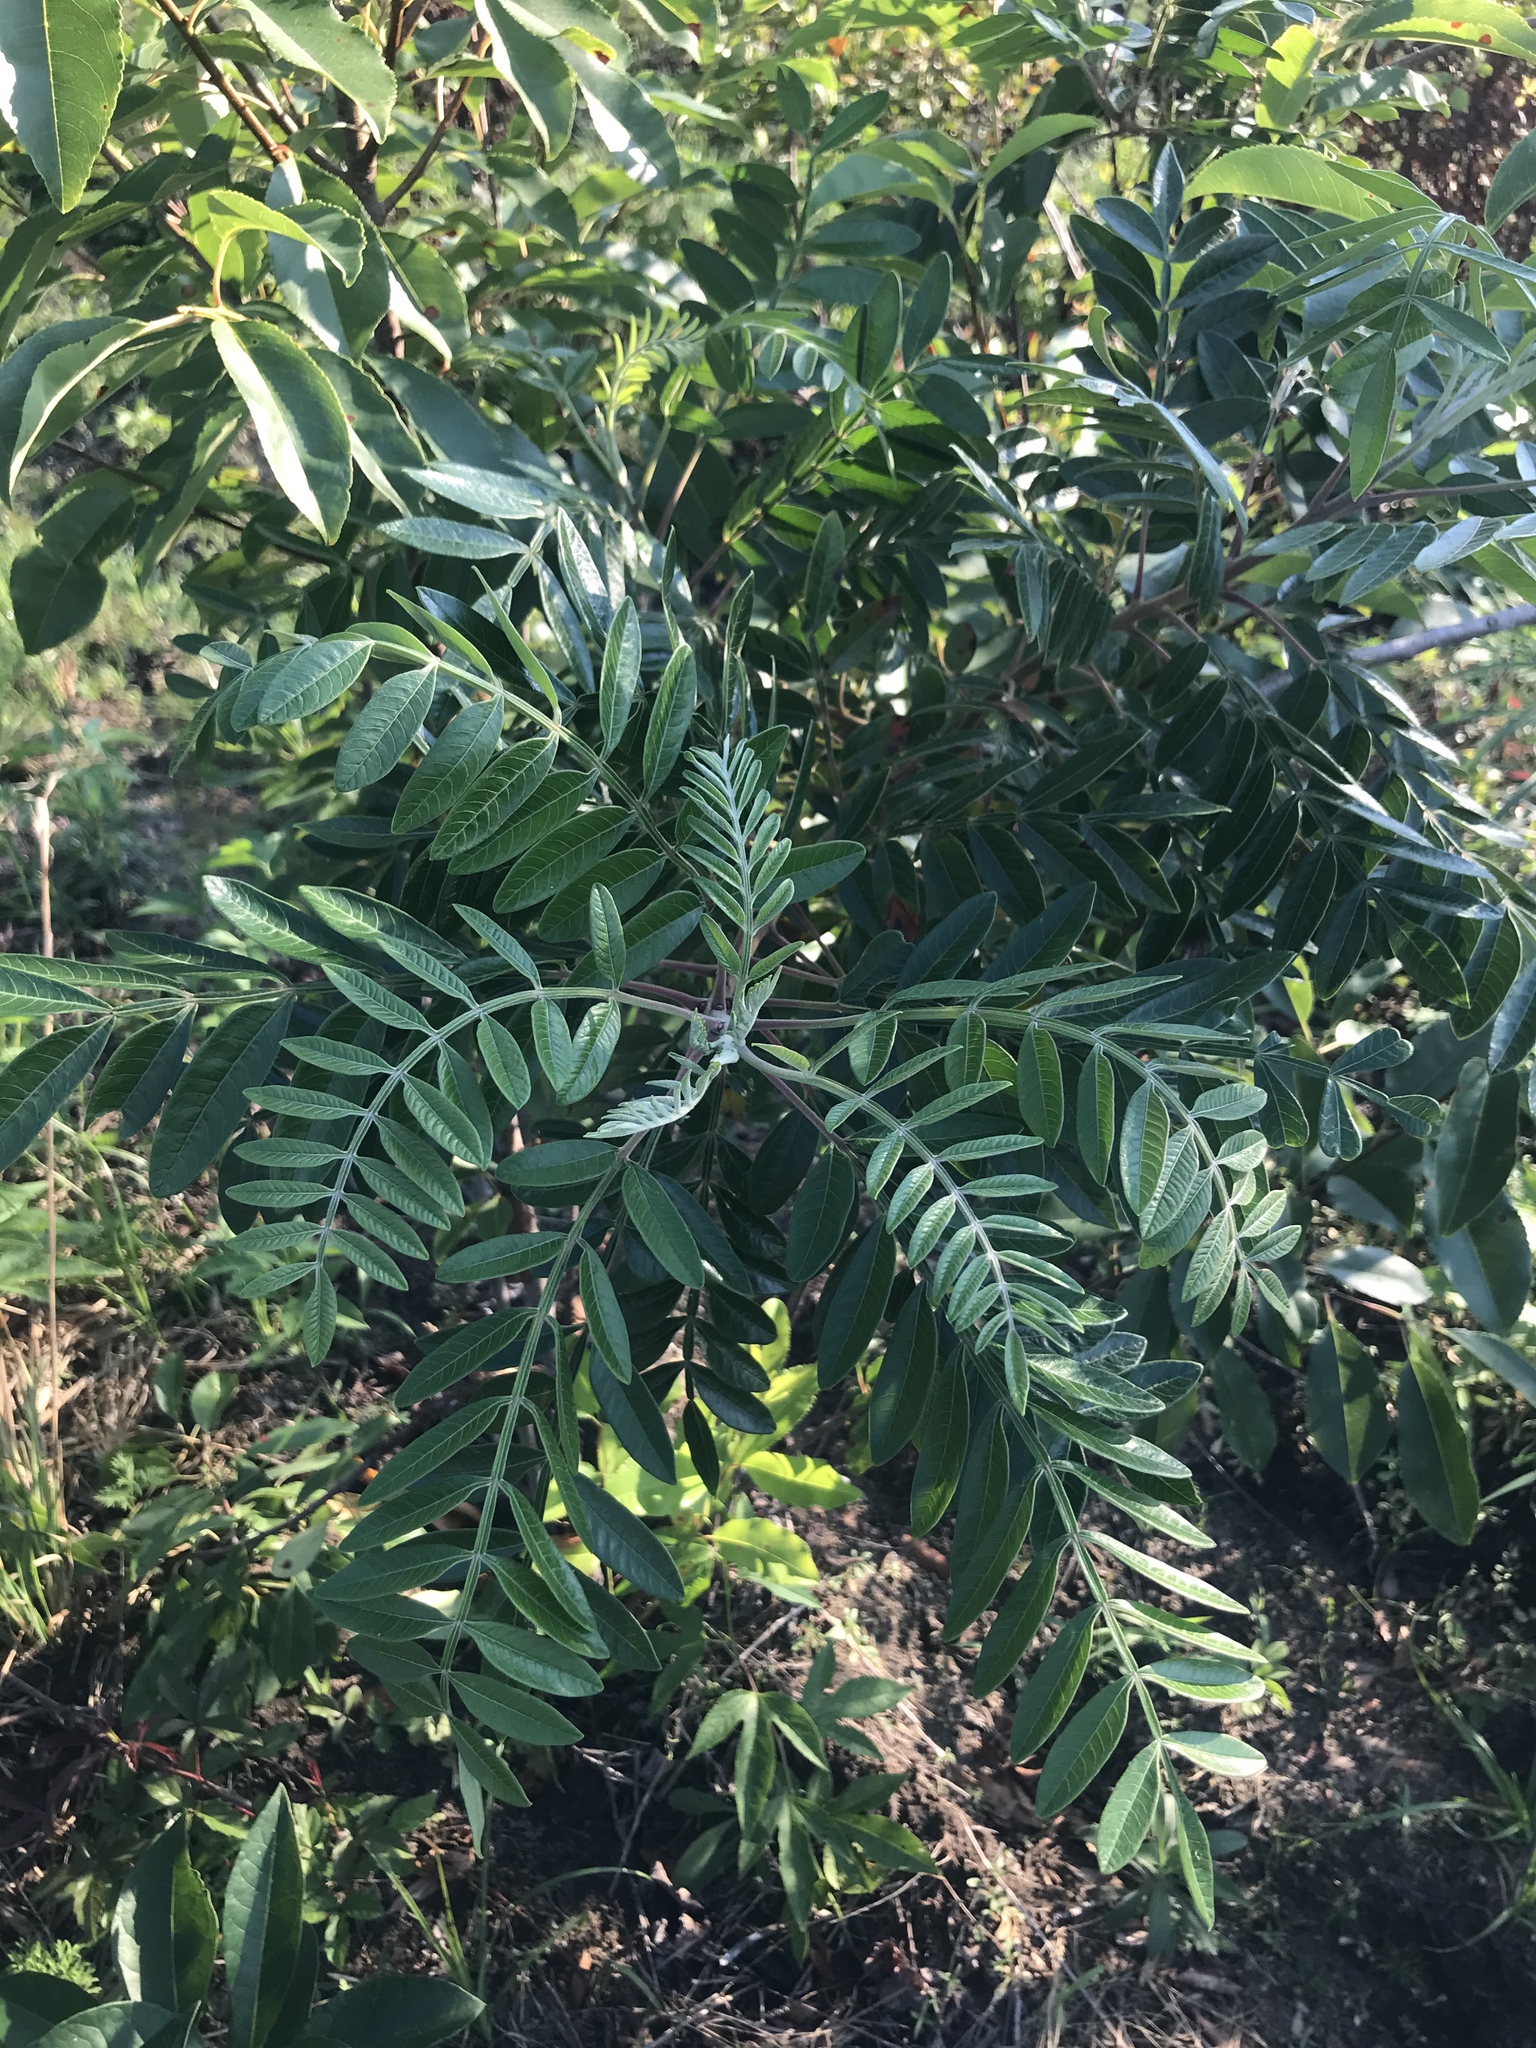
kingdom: Plantae
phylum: Tracheophyta
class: Magnoliopsida
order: Sapindales
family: Anacardiaceae
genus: Rhus
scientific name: Rhus copallina
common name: Shining sumac
